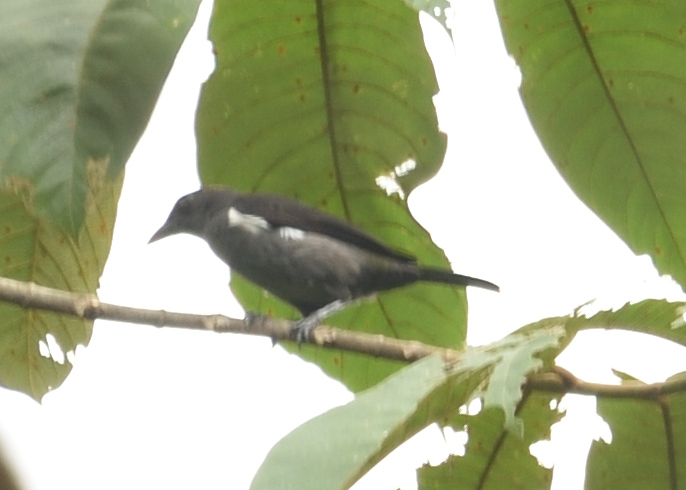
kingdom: Animalia
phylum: Chordata
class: Aves
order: Passeriformes
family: Thraupidae
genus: Heterospingus
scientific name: Heterospingus xanthopygius
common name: Scarlet-browed tanager
